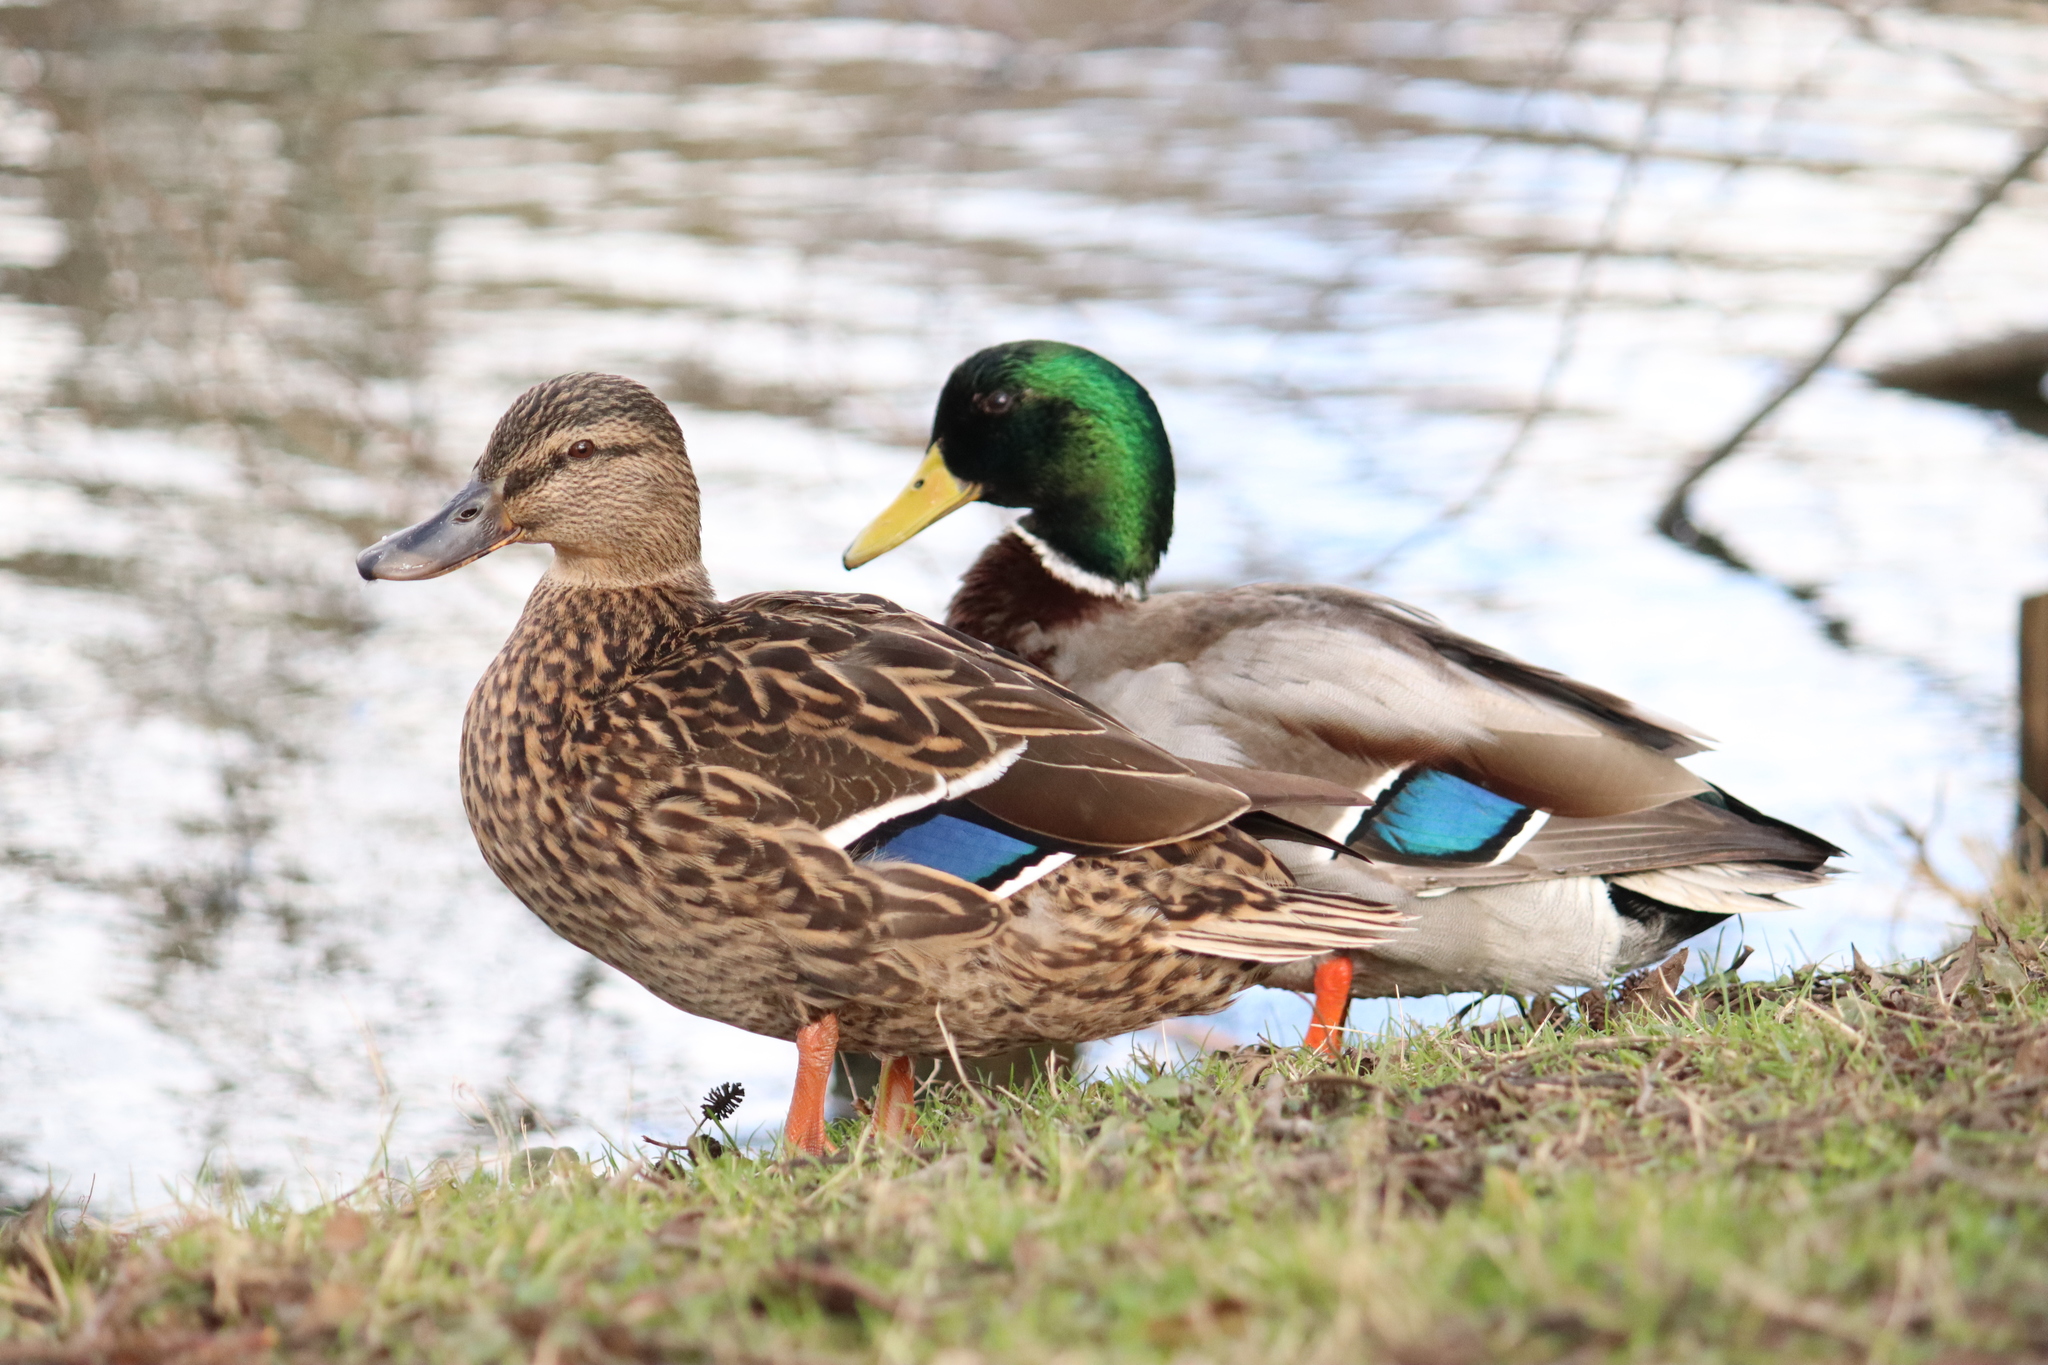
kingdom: Animalia
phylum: Chordata
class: Aves
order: Anseriformes
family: Anatidae
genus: Anas
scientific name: Anas platyrhynchos
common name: Mallard
